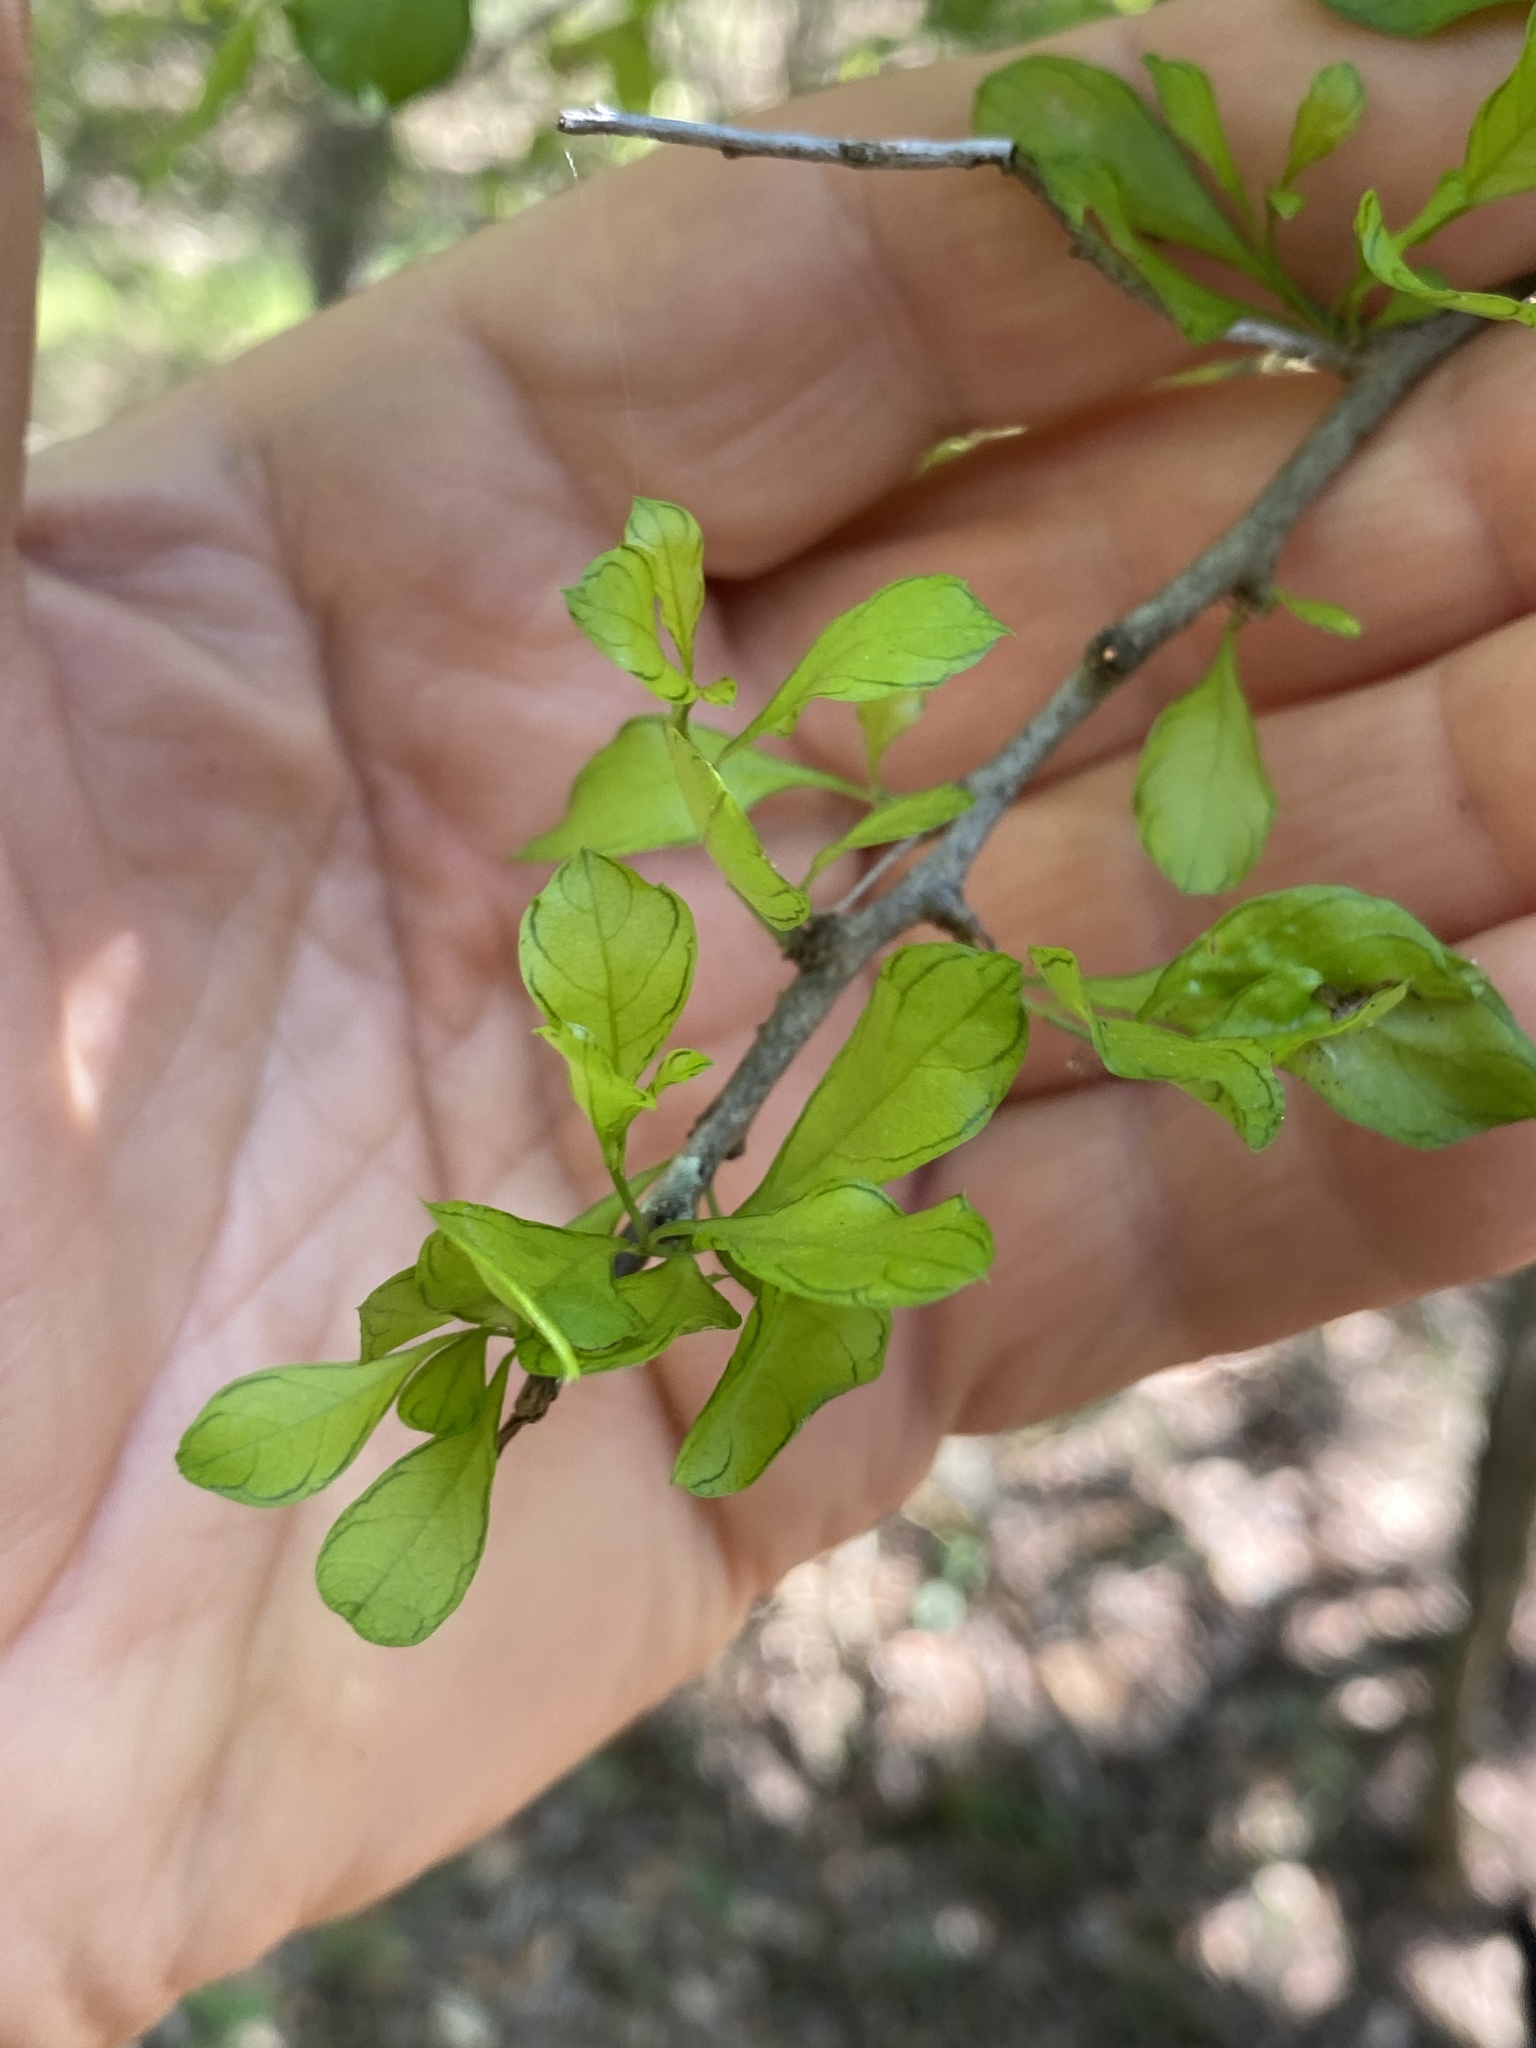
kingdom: Plantae
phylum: Tracheophyta
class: Magnoliopsida
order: Rosales
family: Rhamnaceae
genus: Condalia
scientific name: Condalia hookeri
